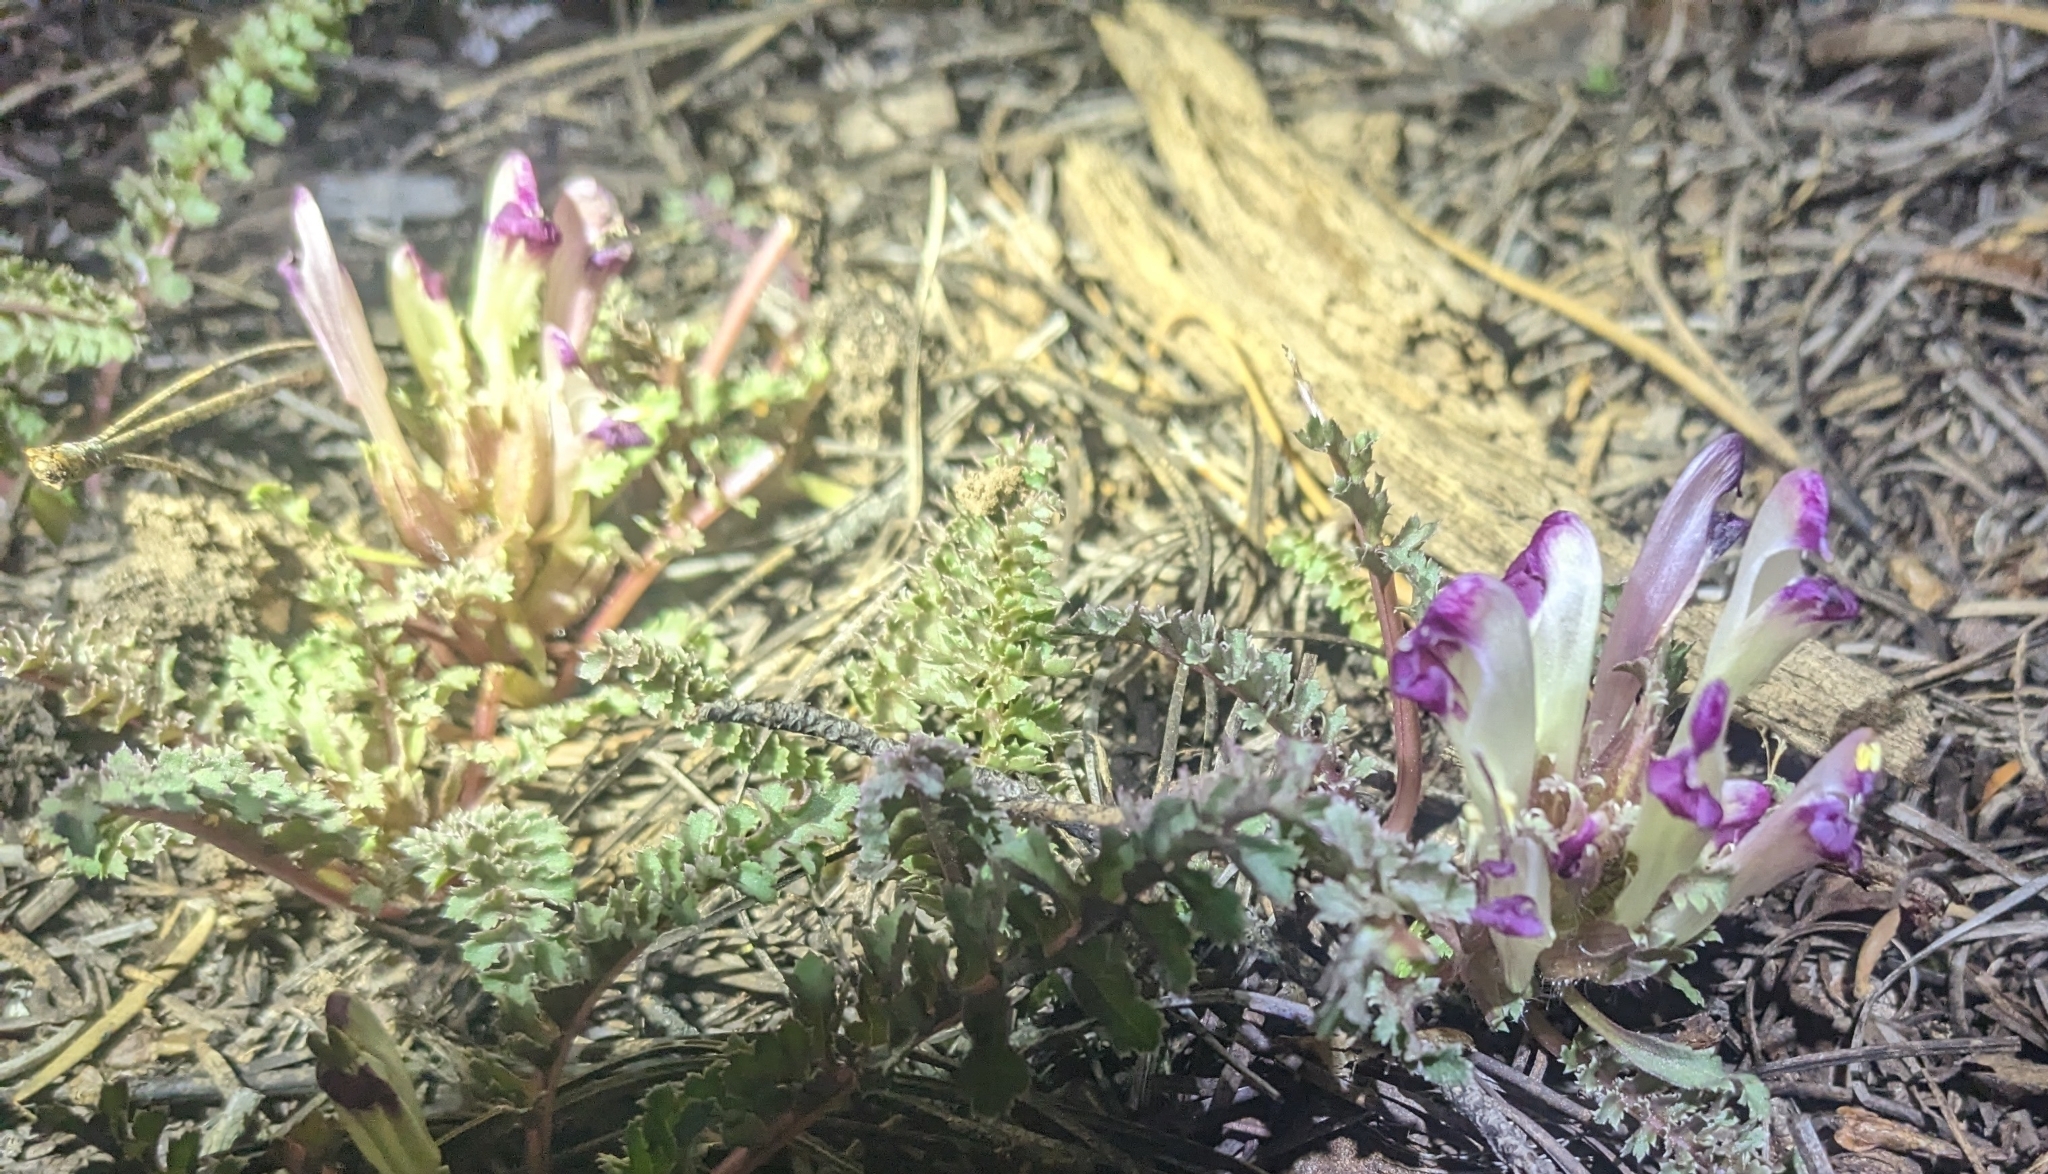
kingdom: Plantae
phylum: Tracheophyta
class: Magnoliopsida
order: Lamiales
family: Orobanchaceae
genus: Pedicularis
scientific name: Pedicularis centranthera
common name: Dwarf lousewort
